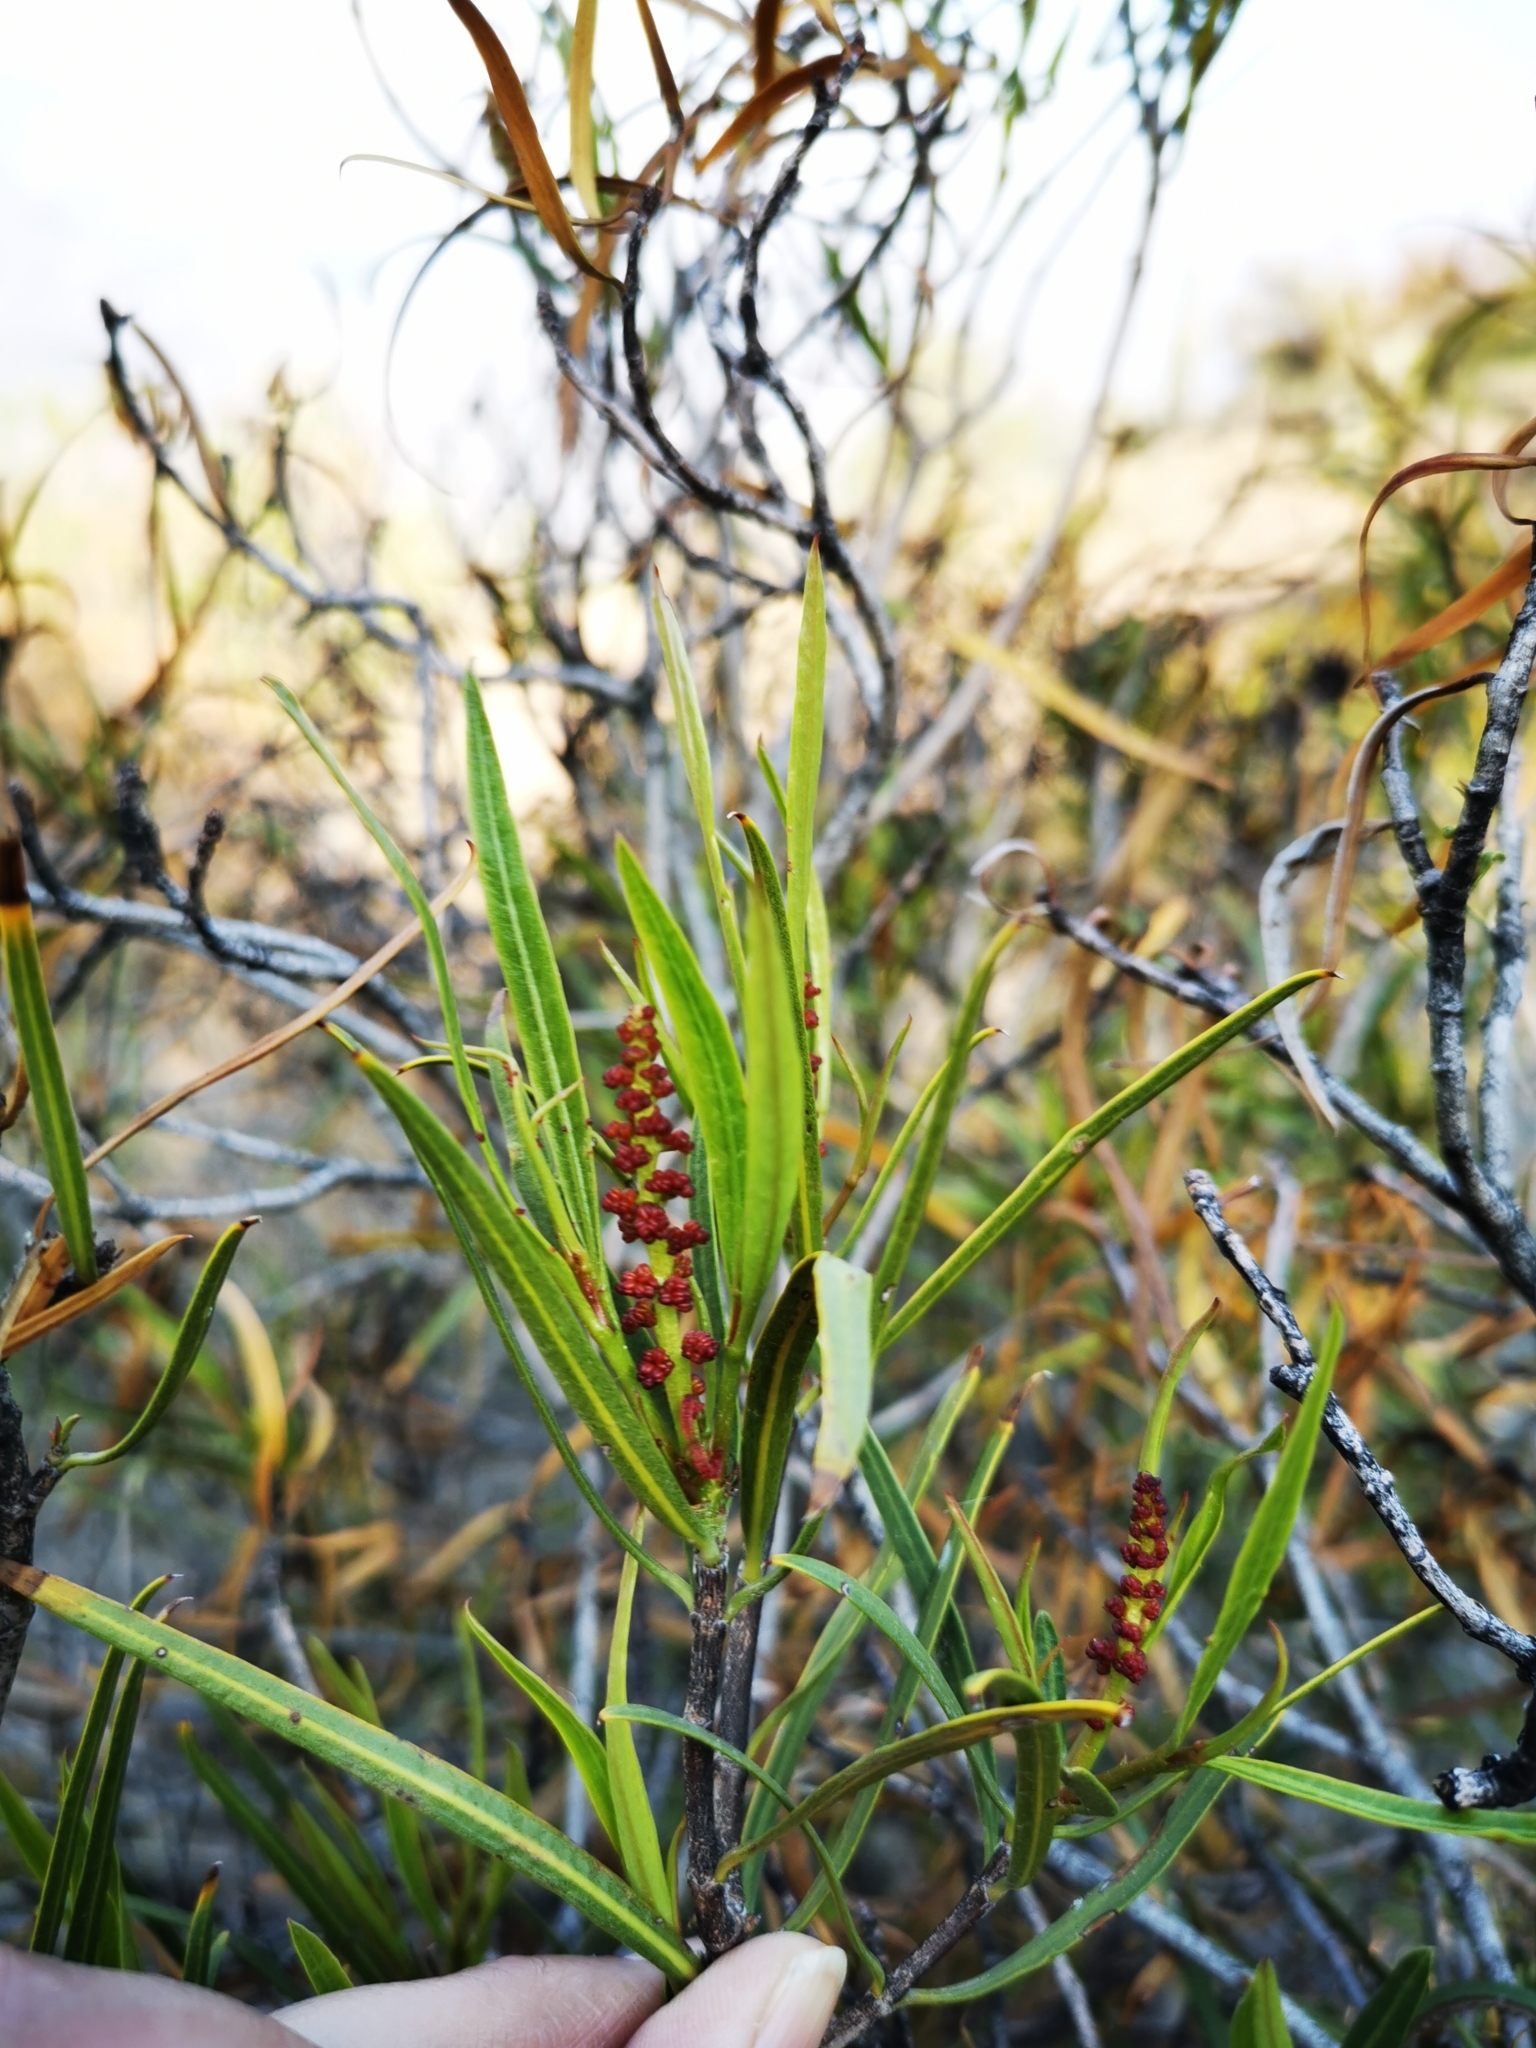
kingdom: Plantae
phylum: Tracheophyta
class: Magnoliopsida
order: Malpighiales
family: Euphorbiaceae
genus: Colliguaja
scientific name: Colliguaja integerrima
